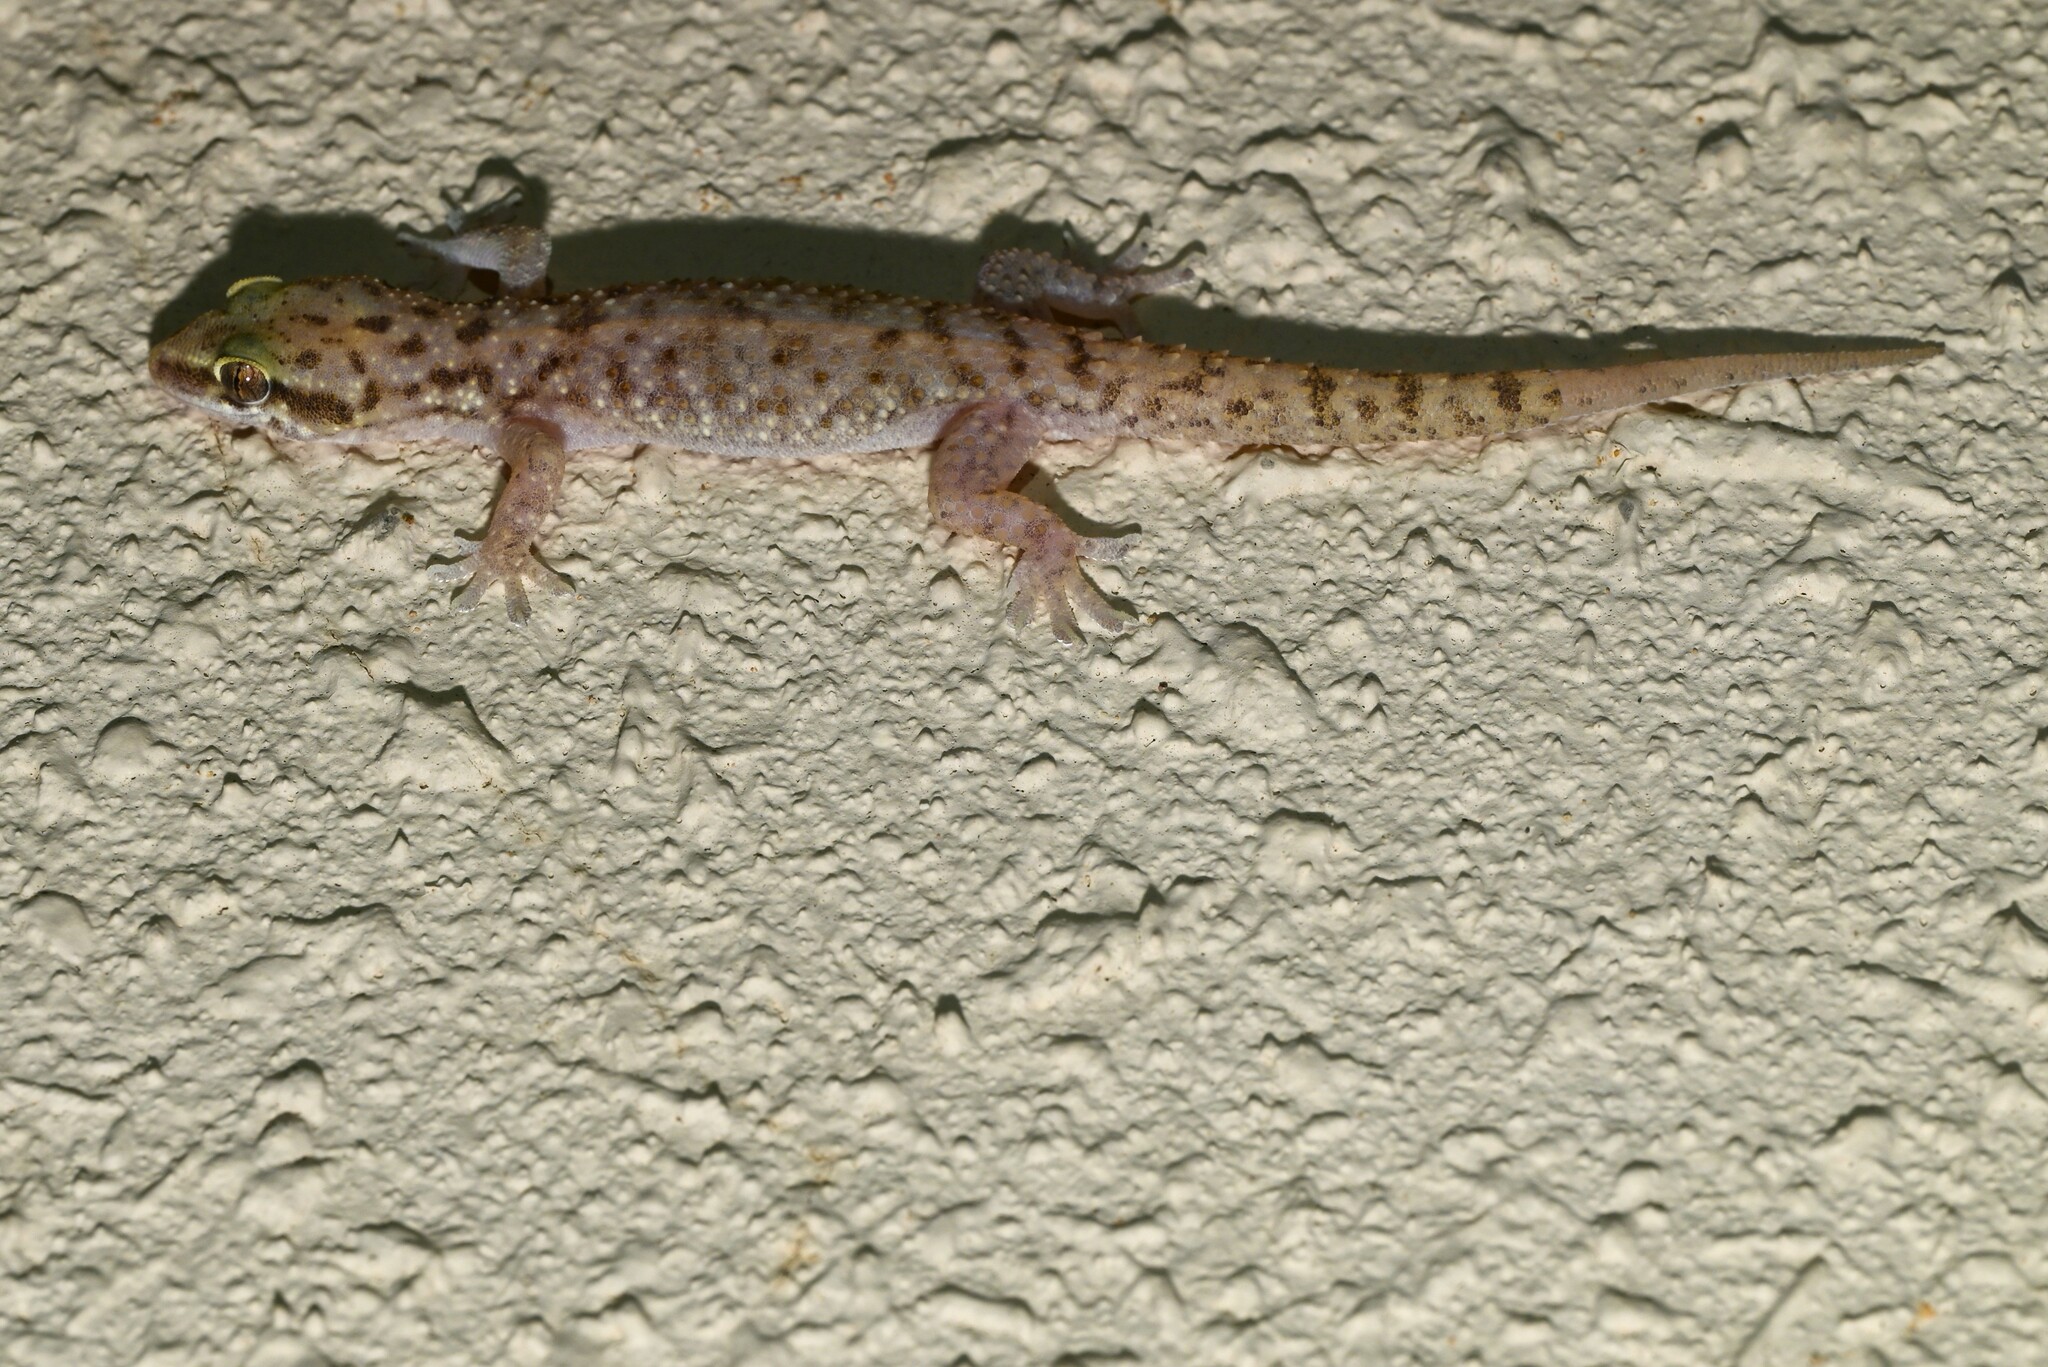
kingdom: Animalia
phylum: Chordata
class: Squamata
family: Gekkonidae
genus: Hemidactylus
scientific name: Hemidactylus robustus
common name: Heyden’s gecko
